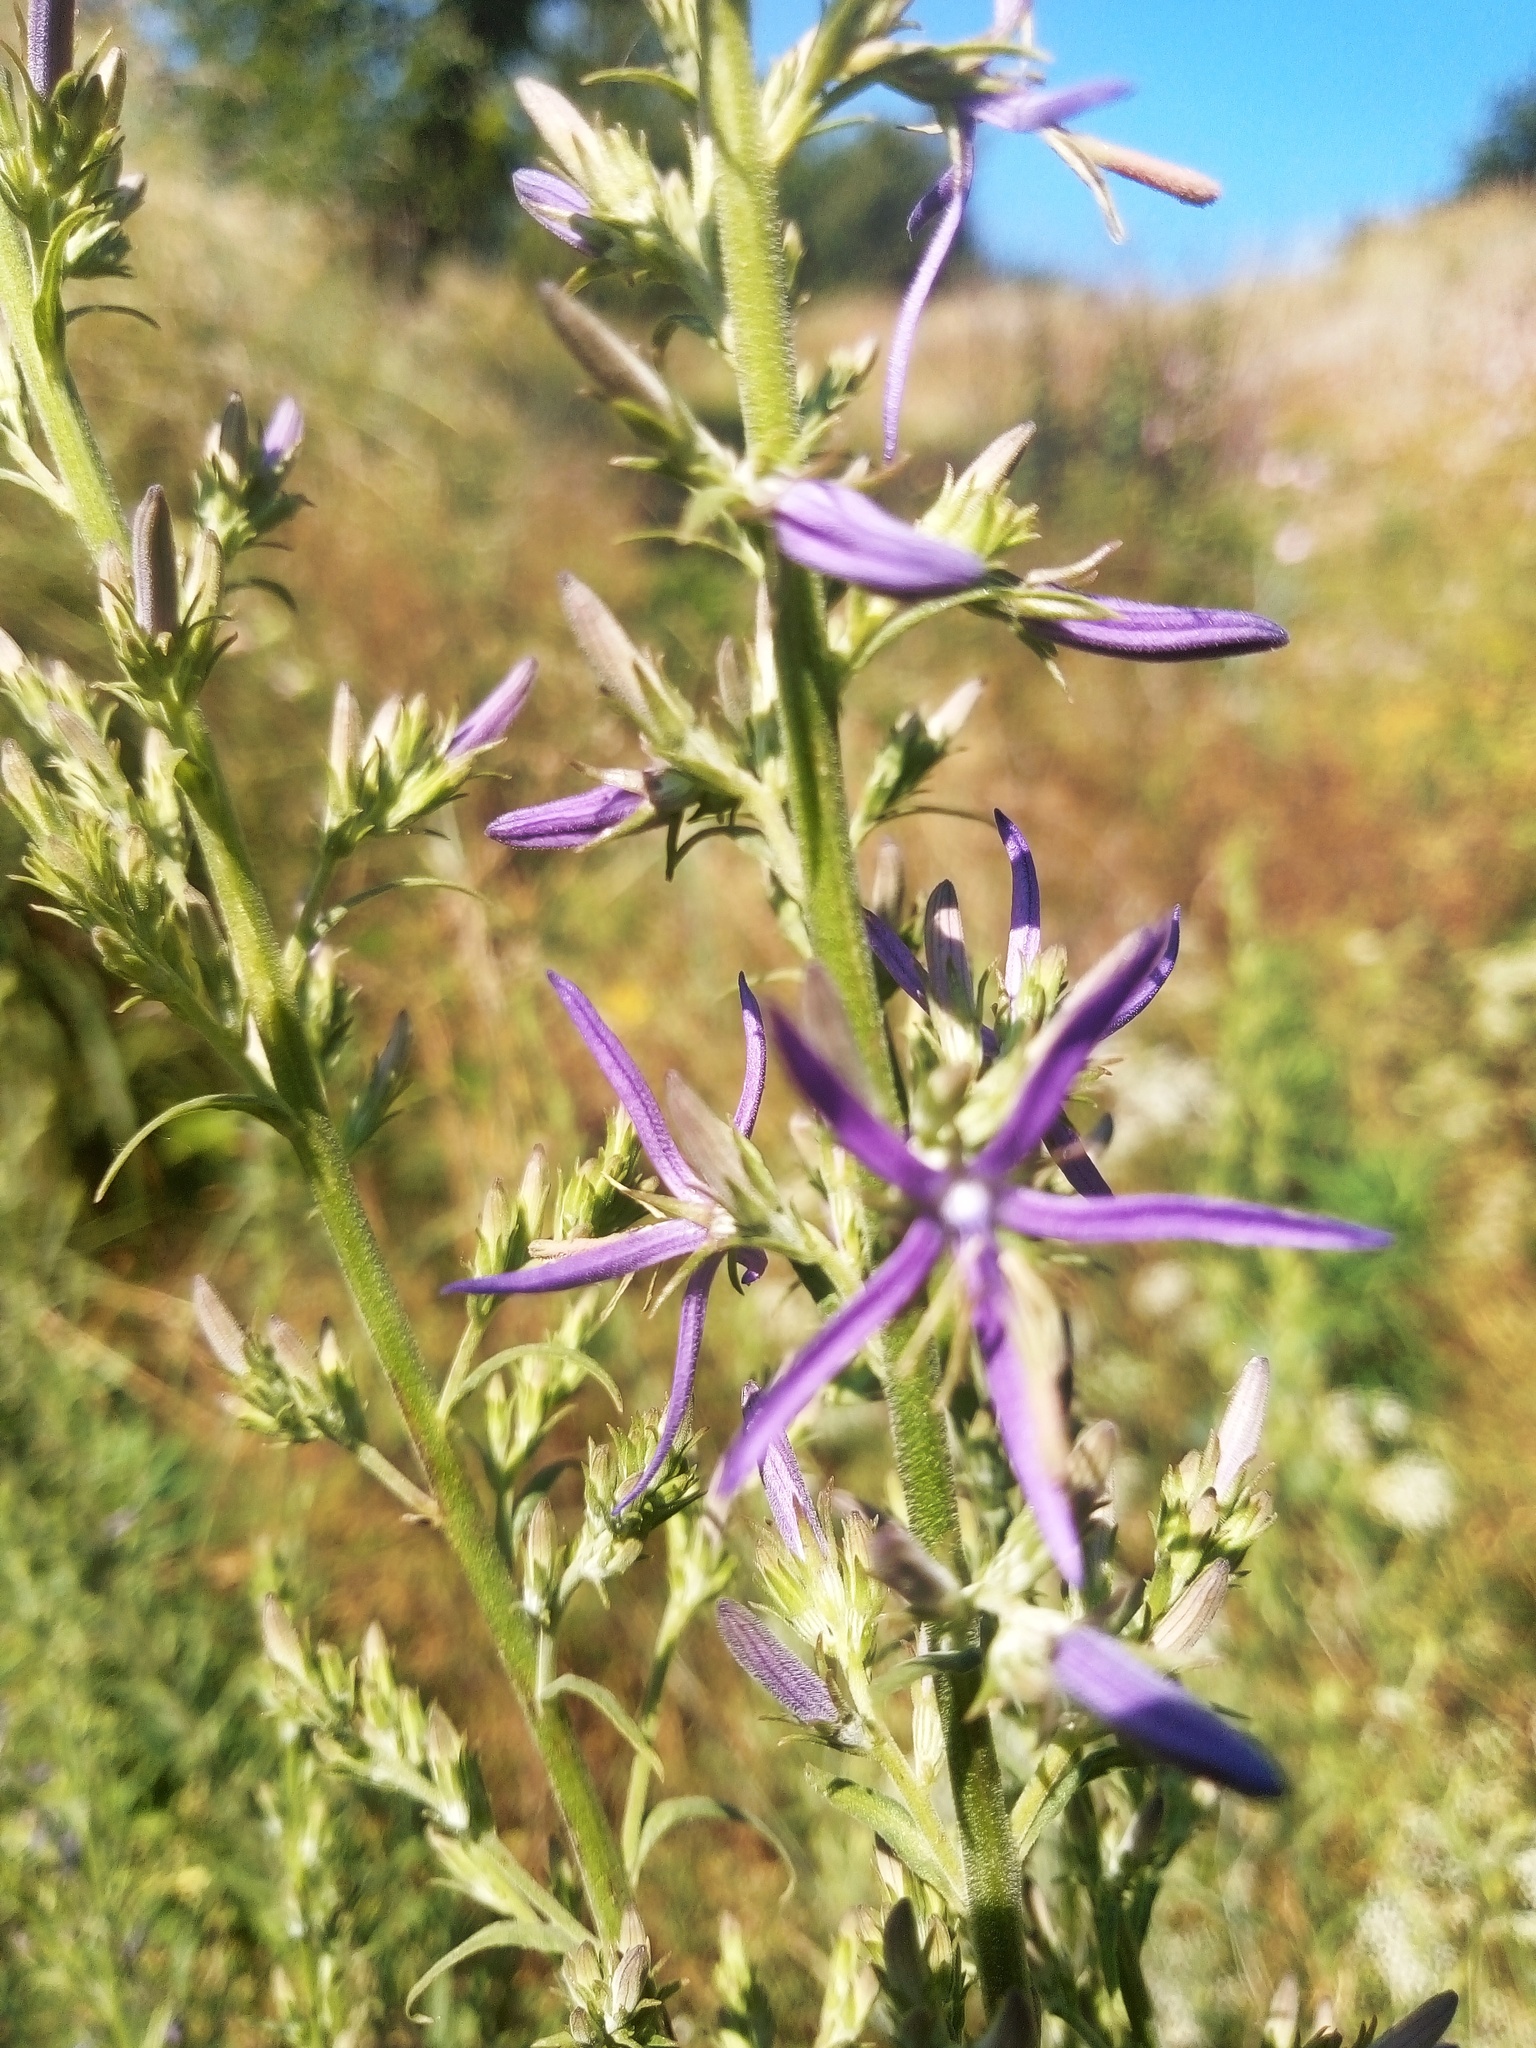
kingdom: Plantae
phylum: Tracheophyta
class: Magnoliopsida
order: Asterales
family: Campanulaceae
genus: Asyneuma
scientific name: Asyneuma canescens
